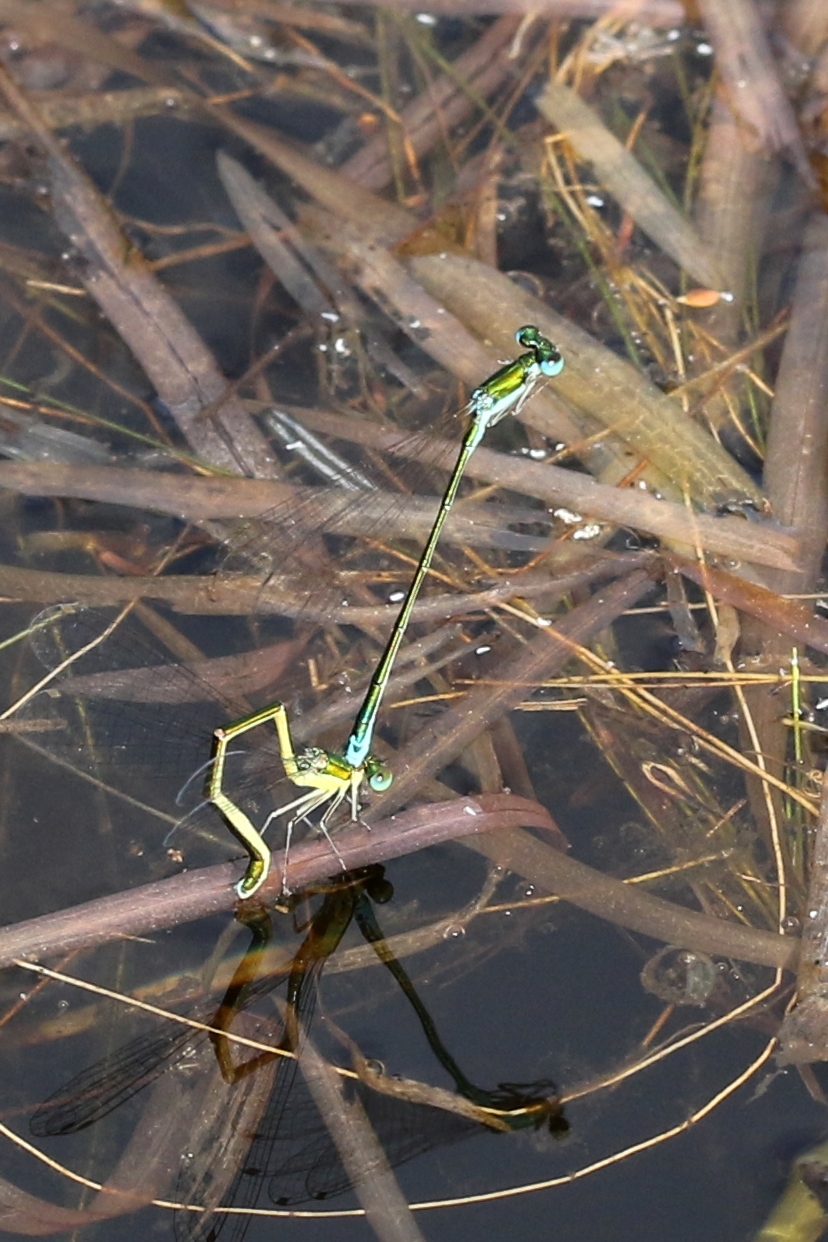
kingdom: Animalia
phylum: Arthropoda
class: Insecta
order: Odonata
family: Coenagrionidae
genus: Nehalennia
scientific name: Nehalennia irene
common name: Sedge sprite
